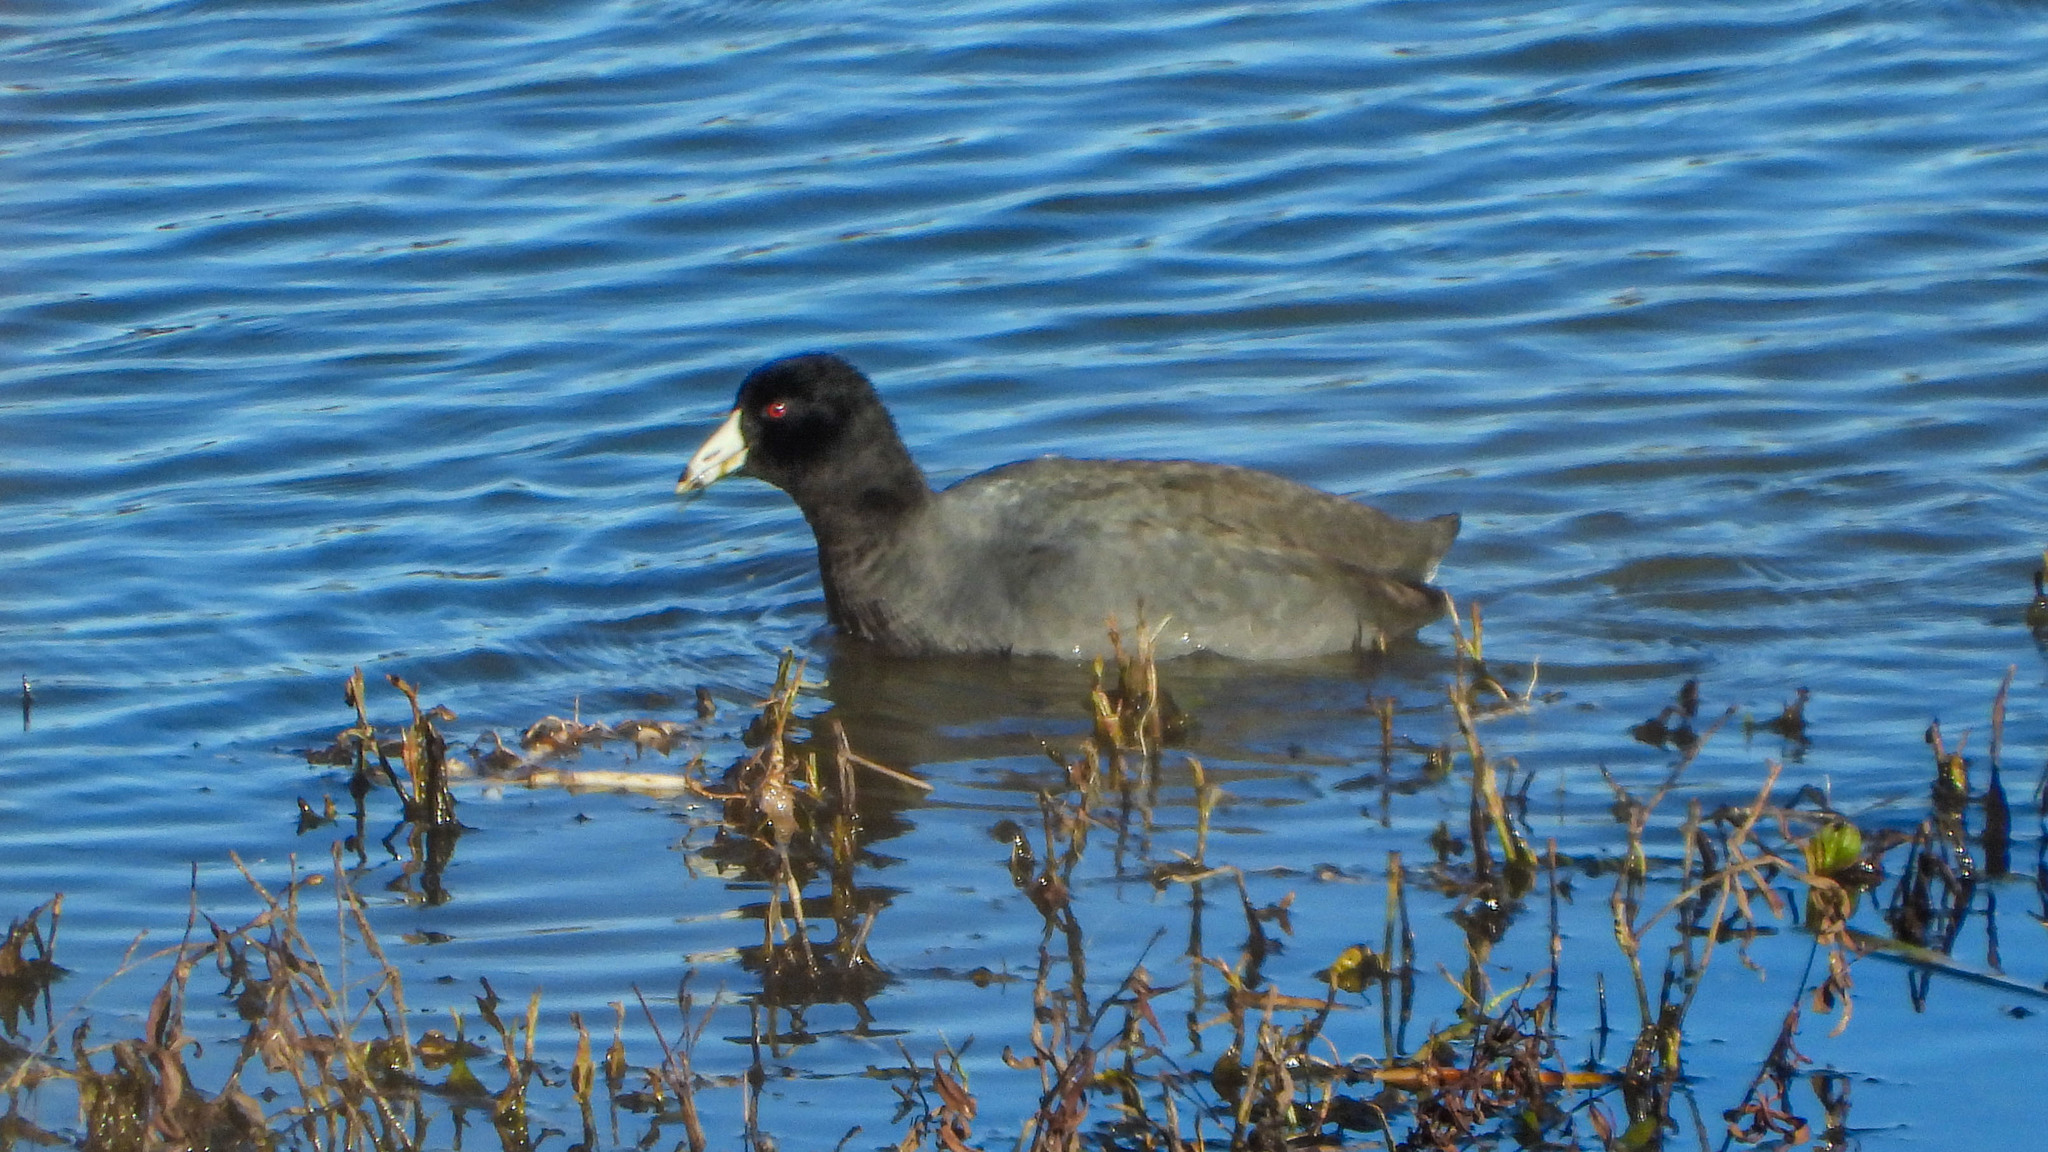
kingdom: Animalia
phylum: Chordata
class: Aves
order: Gruiformes
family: Rallidae
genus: Fulica
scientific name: Fulica americana
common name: American coot
